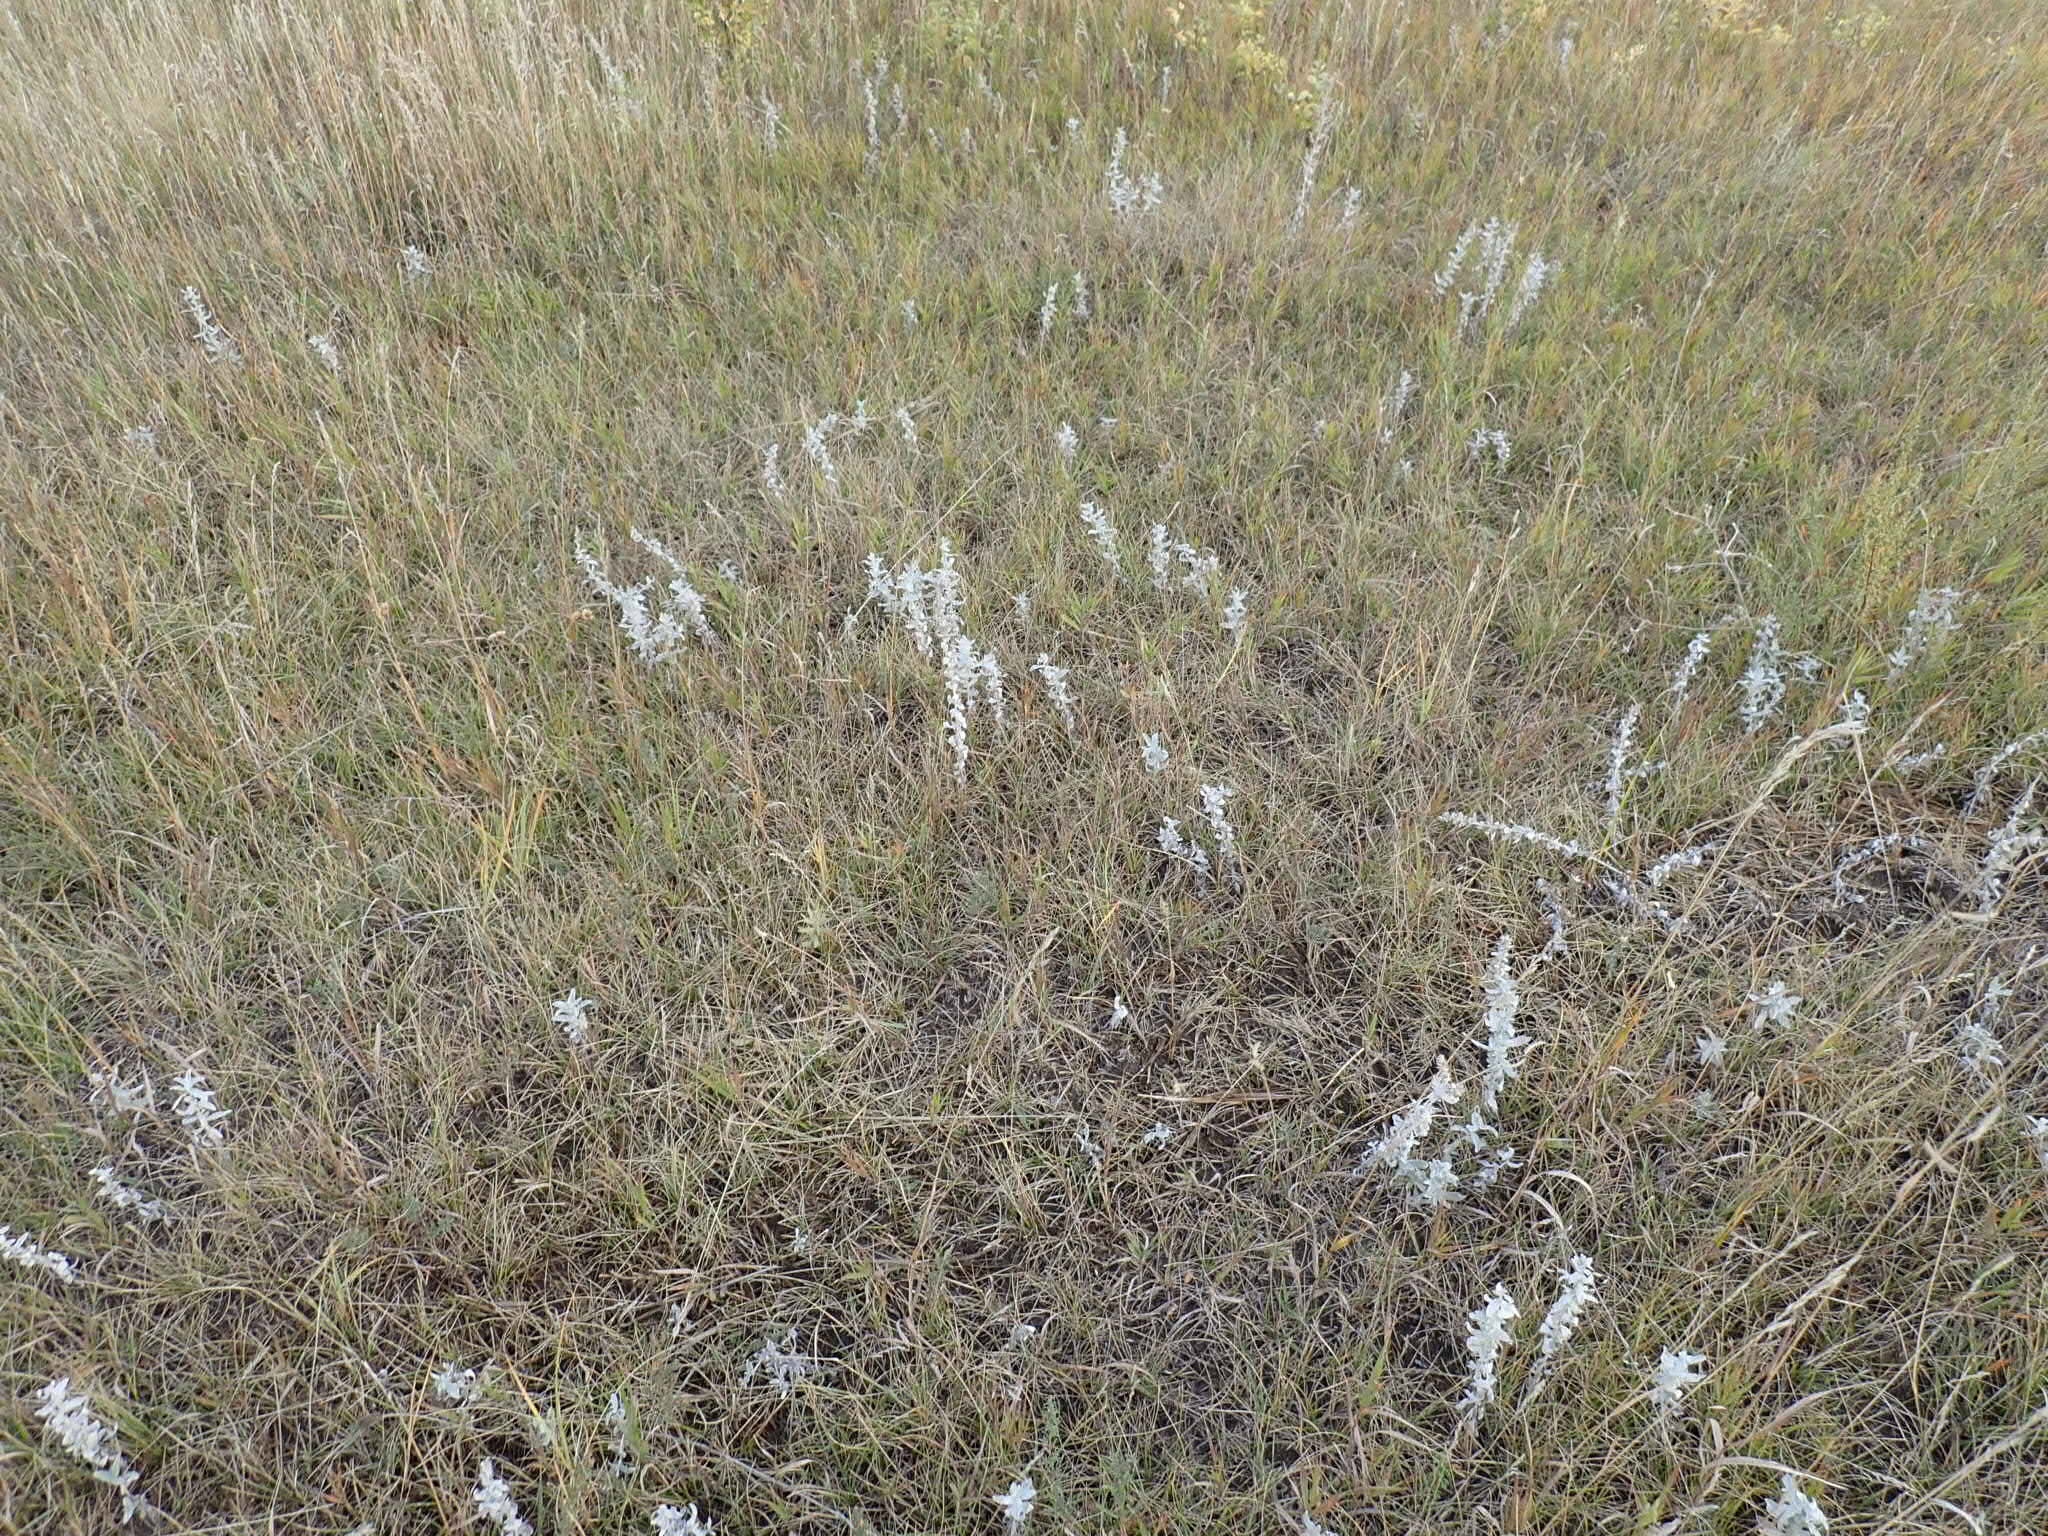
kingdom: Plantae
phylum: Tracheophyta
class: Magnoliopsida
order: Asterales
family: Asteraceae
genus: Artemisia
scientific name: Artemisia ludoviciana
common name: Western mugwort
